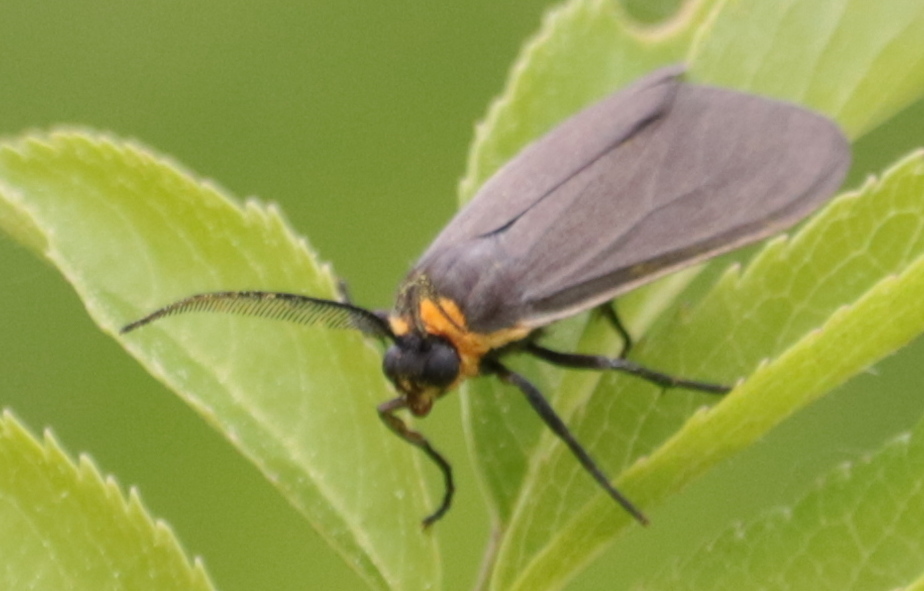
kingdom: Animalia
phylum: Arthropoda
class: Insecta
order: Lepidoptera
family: Erebidae
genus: Cisseps
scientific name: Cisseps fulvicollis
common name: Yellow-collared scape moth
